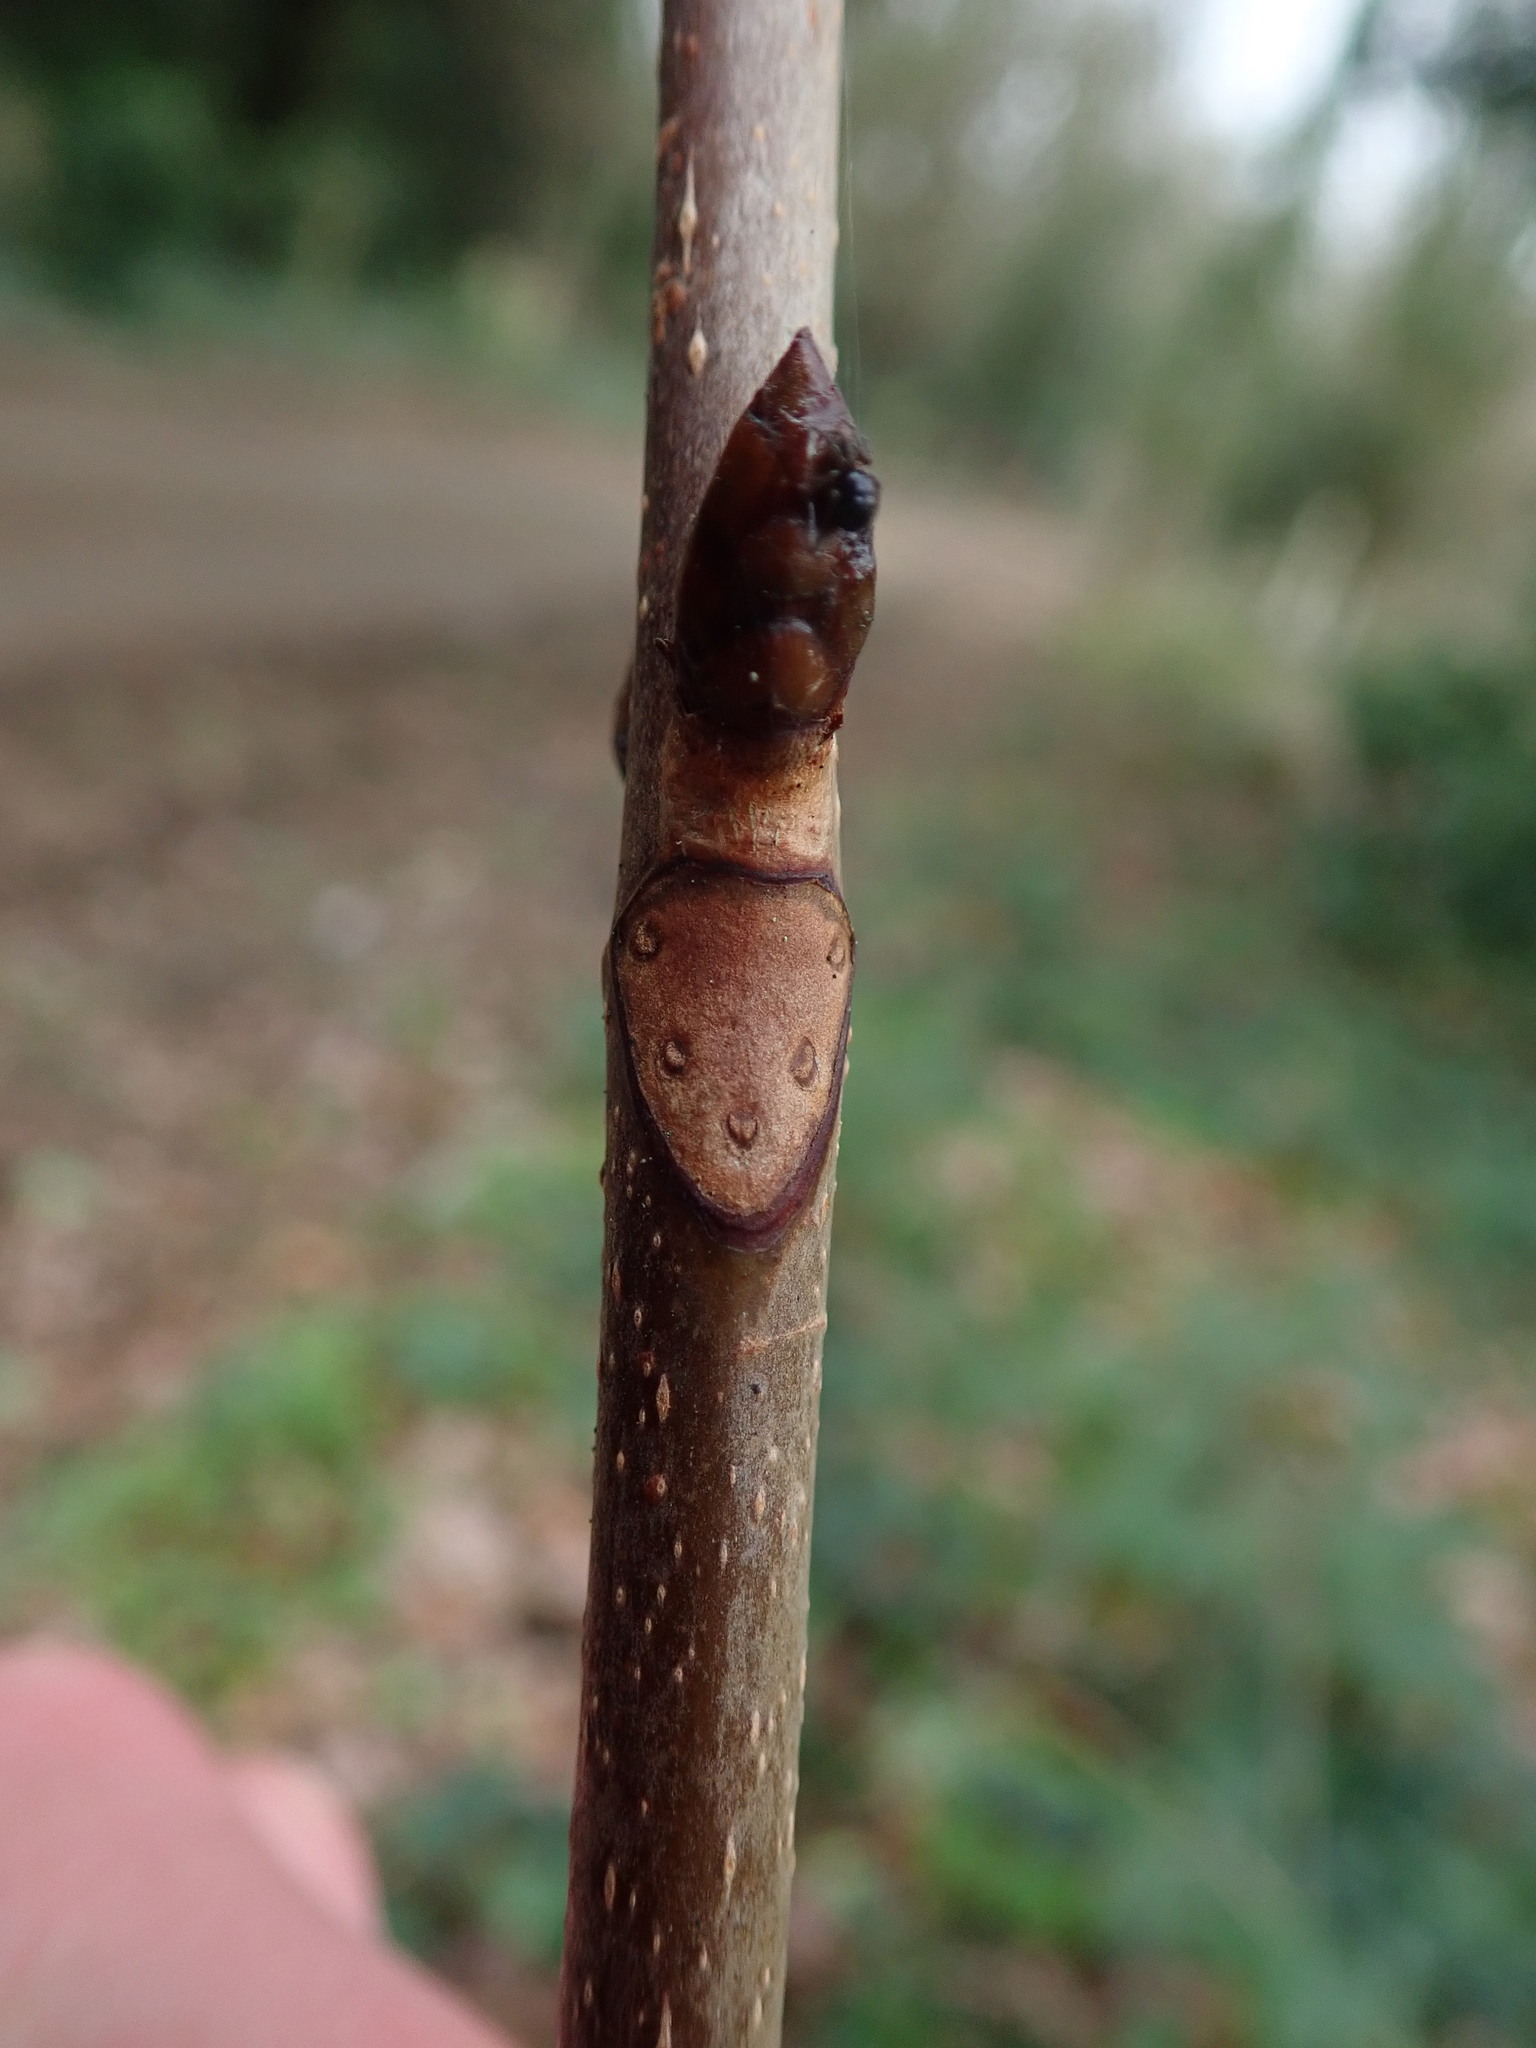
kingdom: Plantae
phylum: Tracheophyta
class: Magnoliopsida
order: Sapindales
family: Sapindaceae
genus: Aesculus
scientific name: Aesculus hippocastanum
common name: Horse-chestnut
